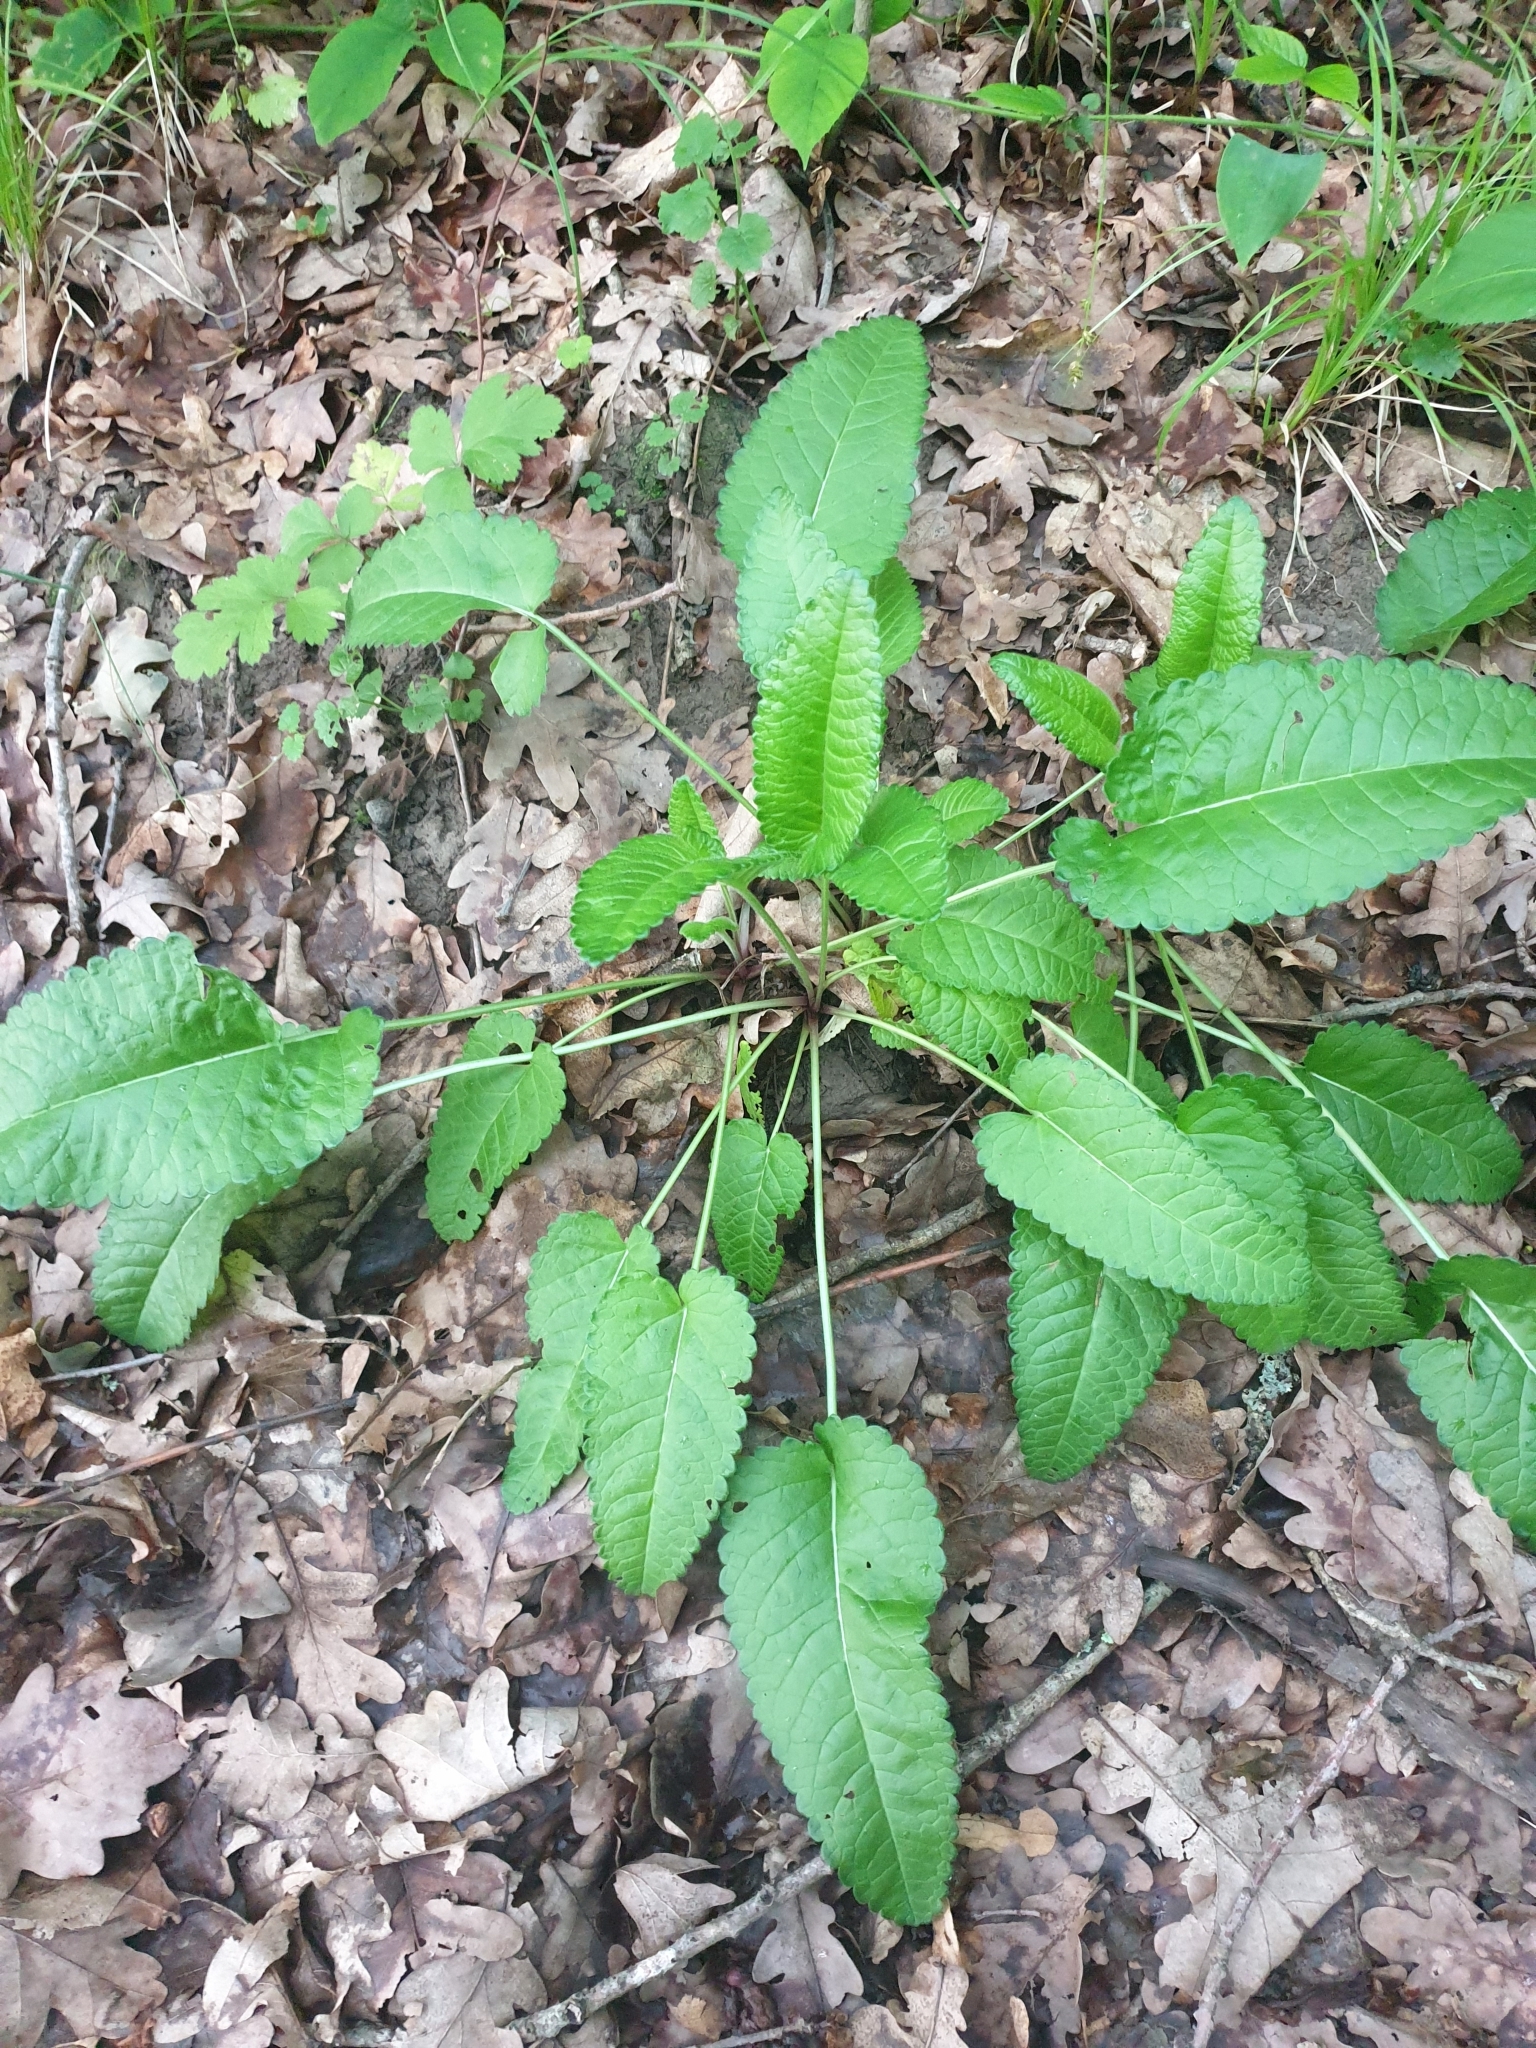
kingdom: Plantae
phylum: Tracheophyta
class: Magnoliopsida
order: Lamiales
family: Lamiaceae
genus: Betonica
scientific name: Betonica officinalis
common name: Bishop's-wort
